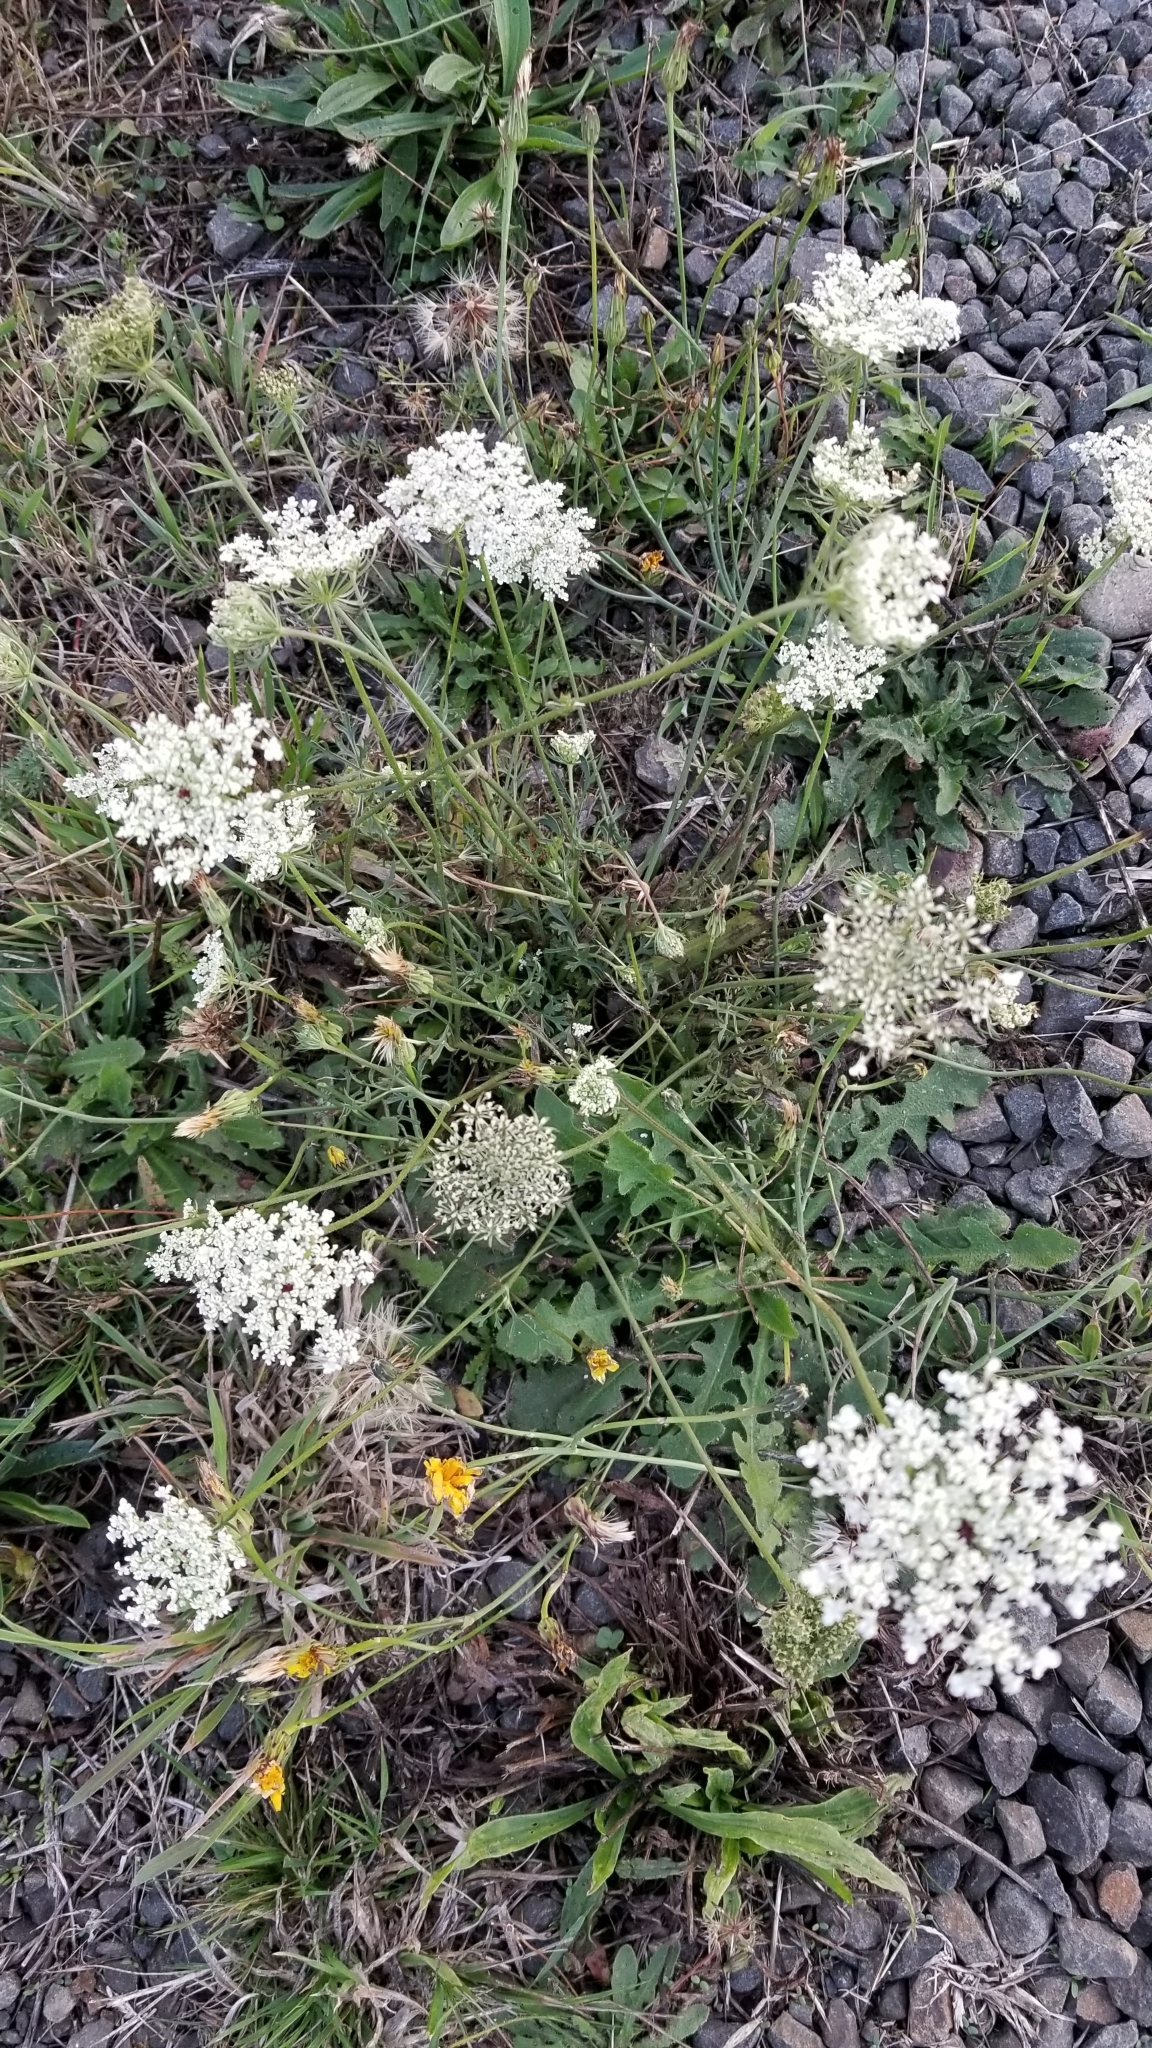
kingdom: Plantae
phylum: Tracheophyta
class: Magnoliopsida
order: Apiales
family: Apiaceae
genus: Daucus
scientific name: Daucus carota
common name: Wild carrot
